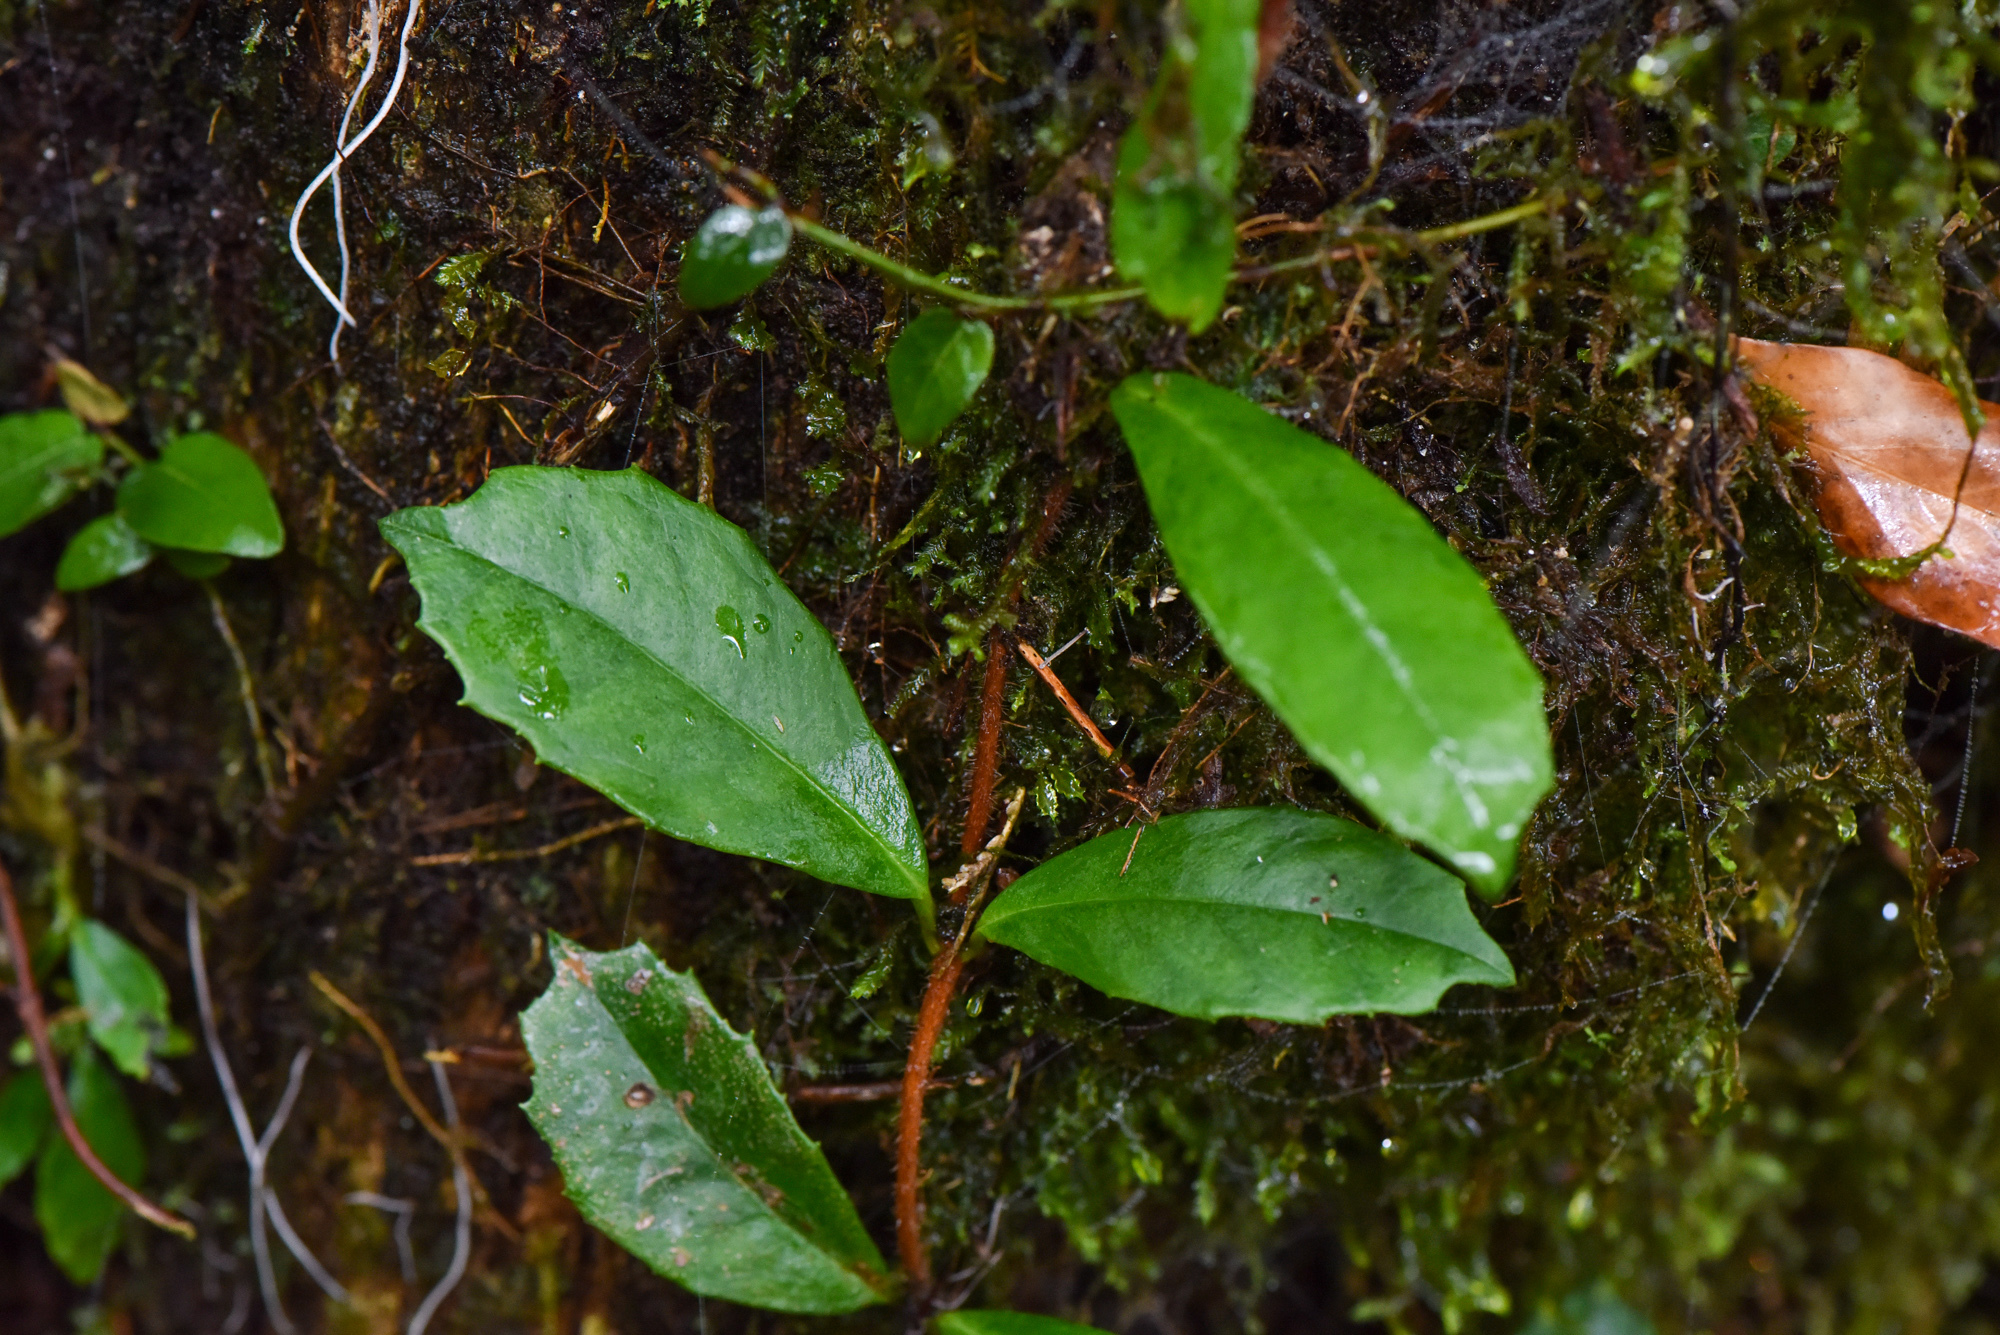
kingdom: Plantae
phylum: Tracheophyta
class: Magnoliopsida
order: Cornales
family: Hydrangeaceae
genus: Hydrangea
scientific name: Hydrangea integrifolia
